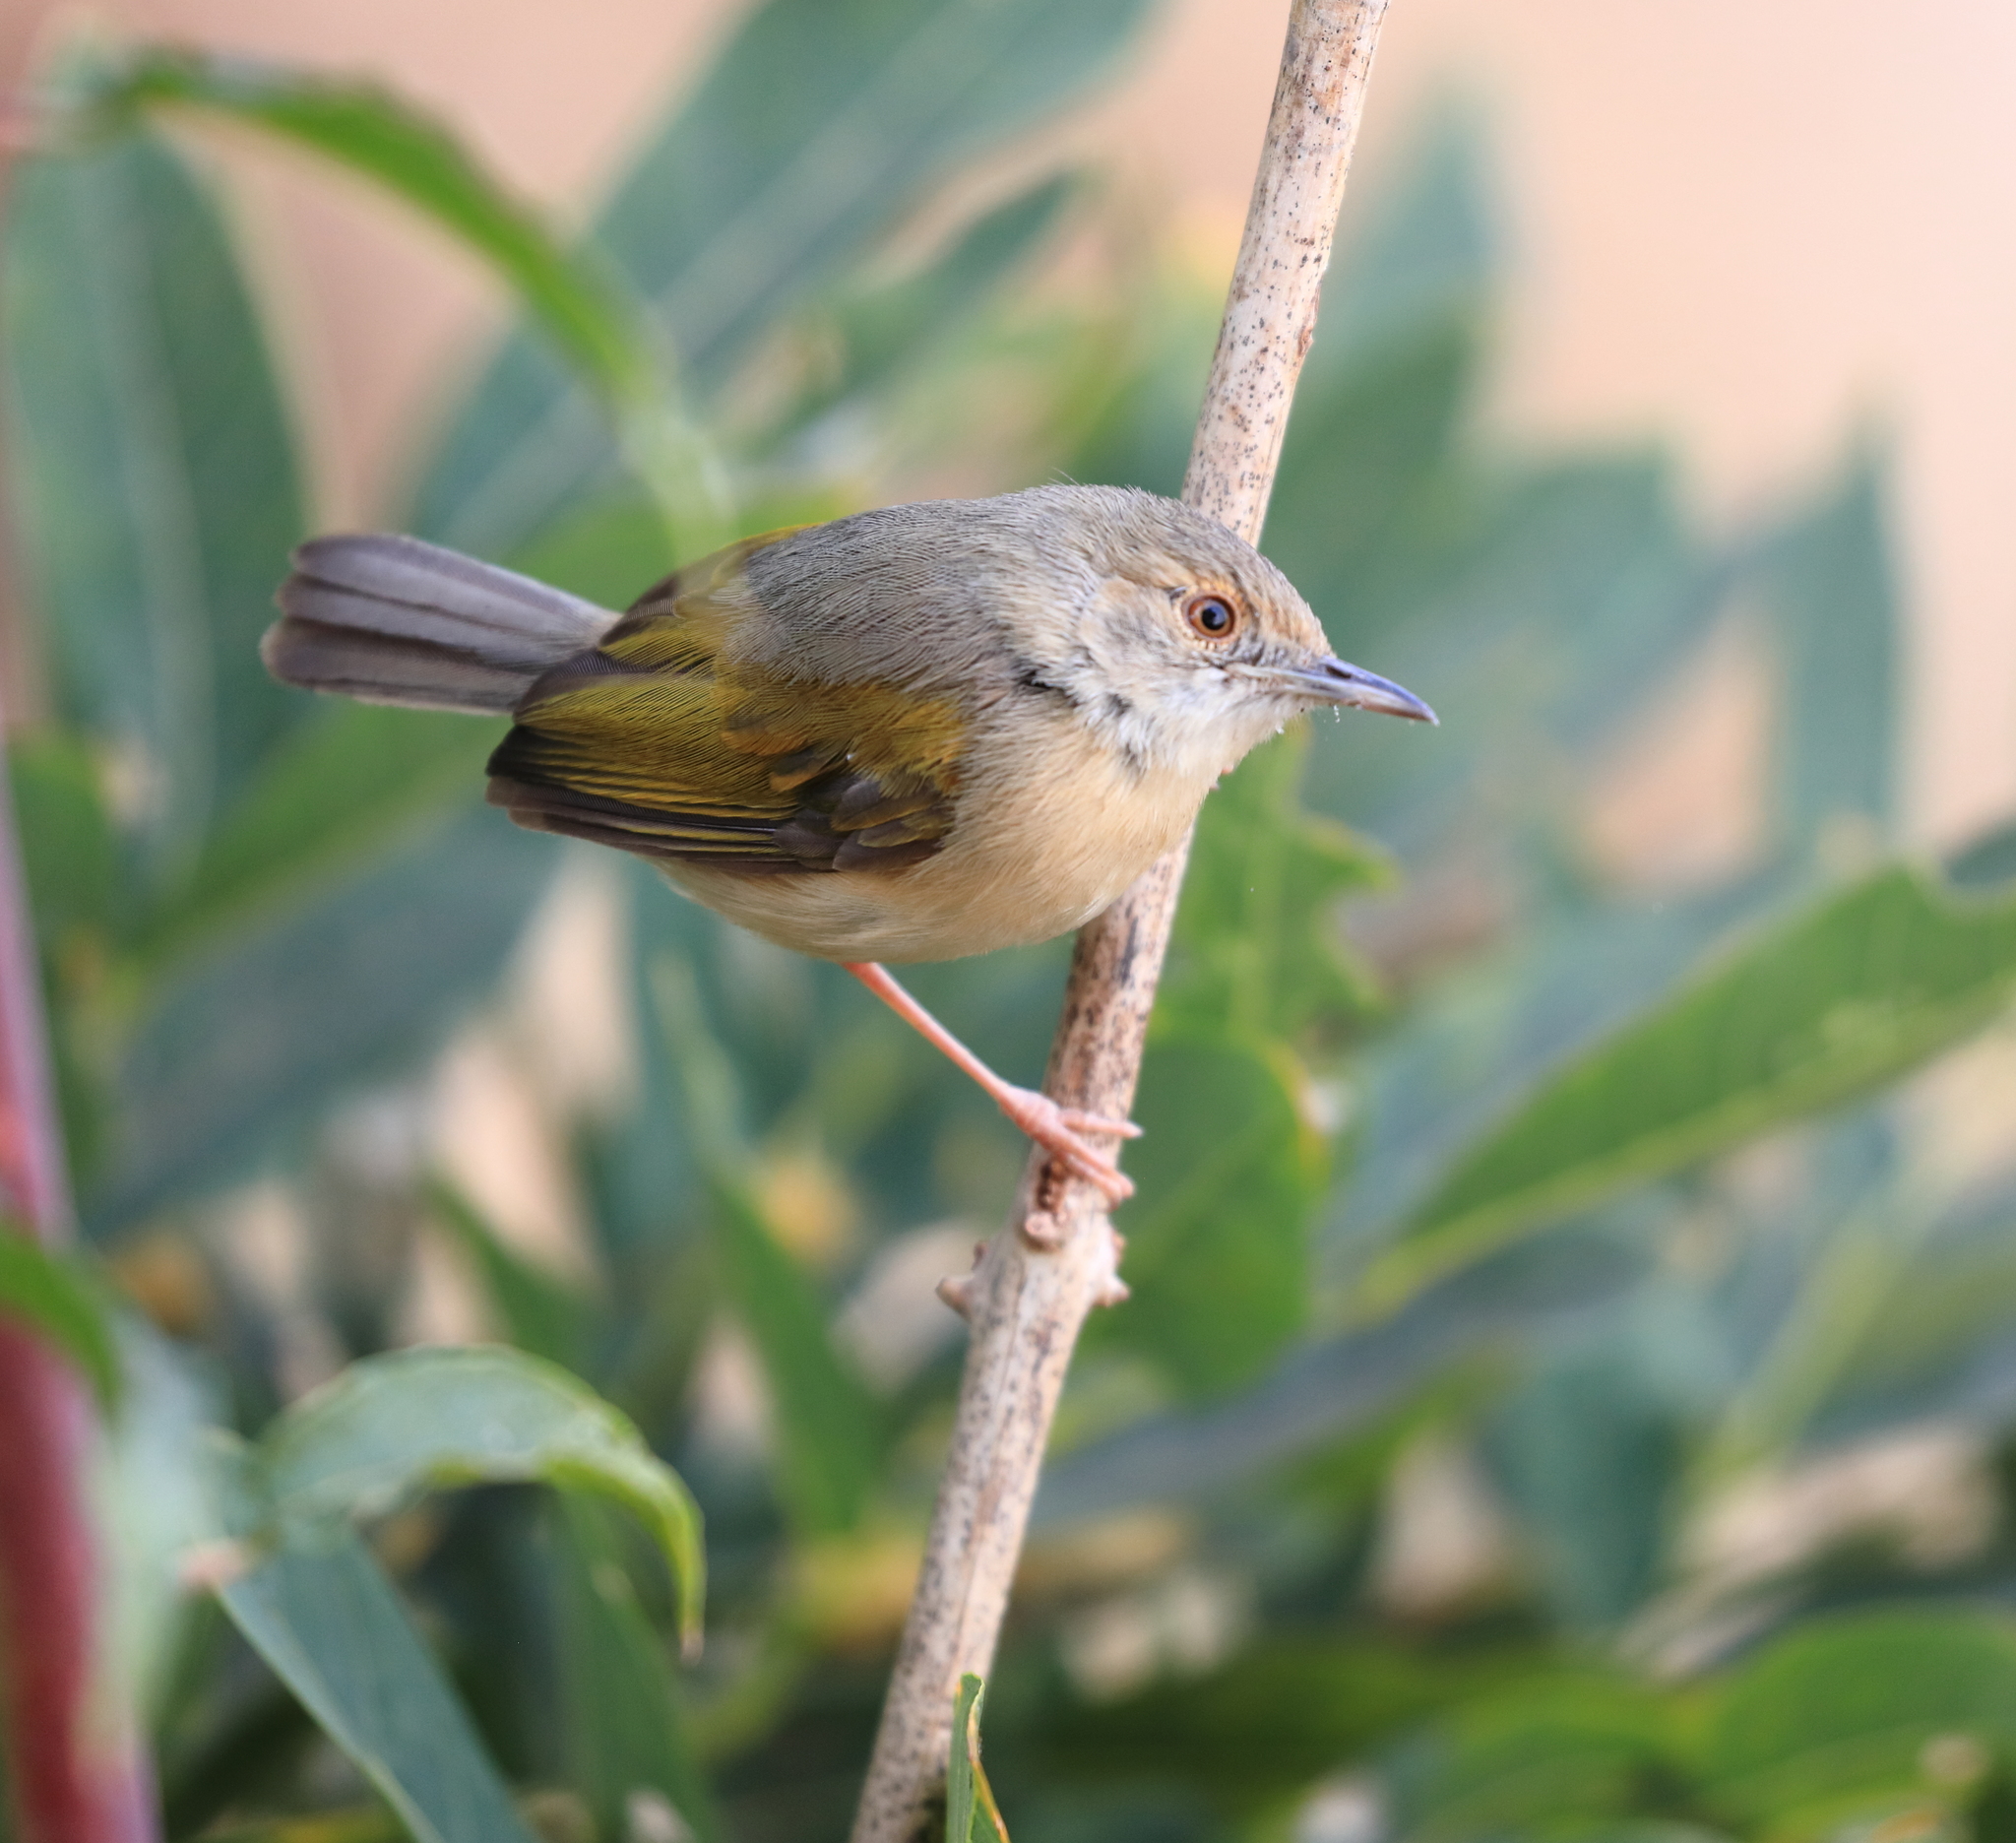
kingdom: Animalia
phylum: Chordata
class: Aves
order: Passeriformes
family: Cisticolidae
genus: Camaroptera
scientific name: Camaroptera brachyura
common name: Green-backed camaroptera
